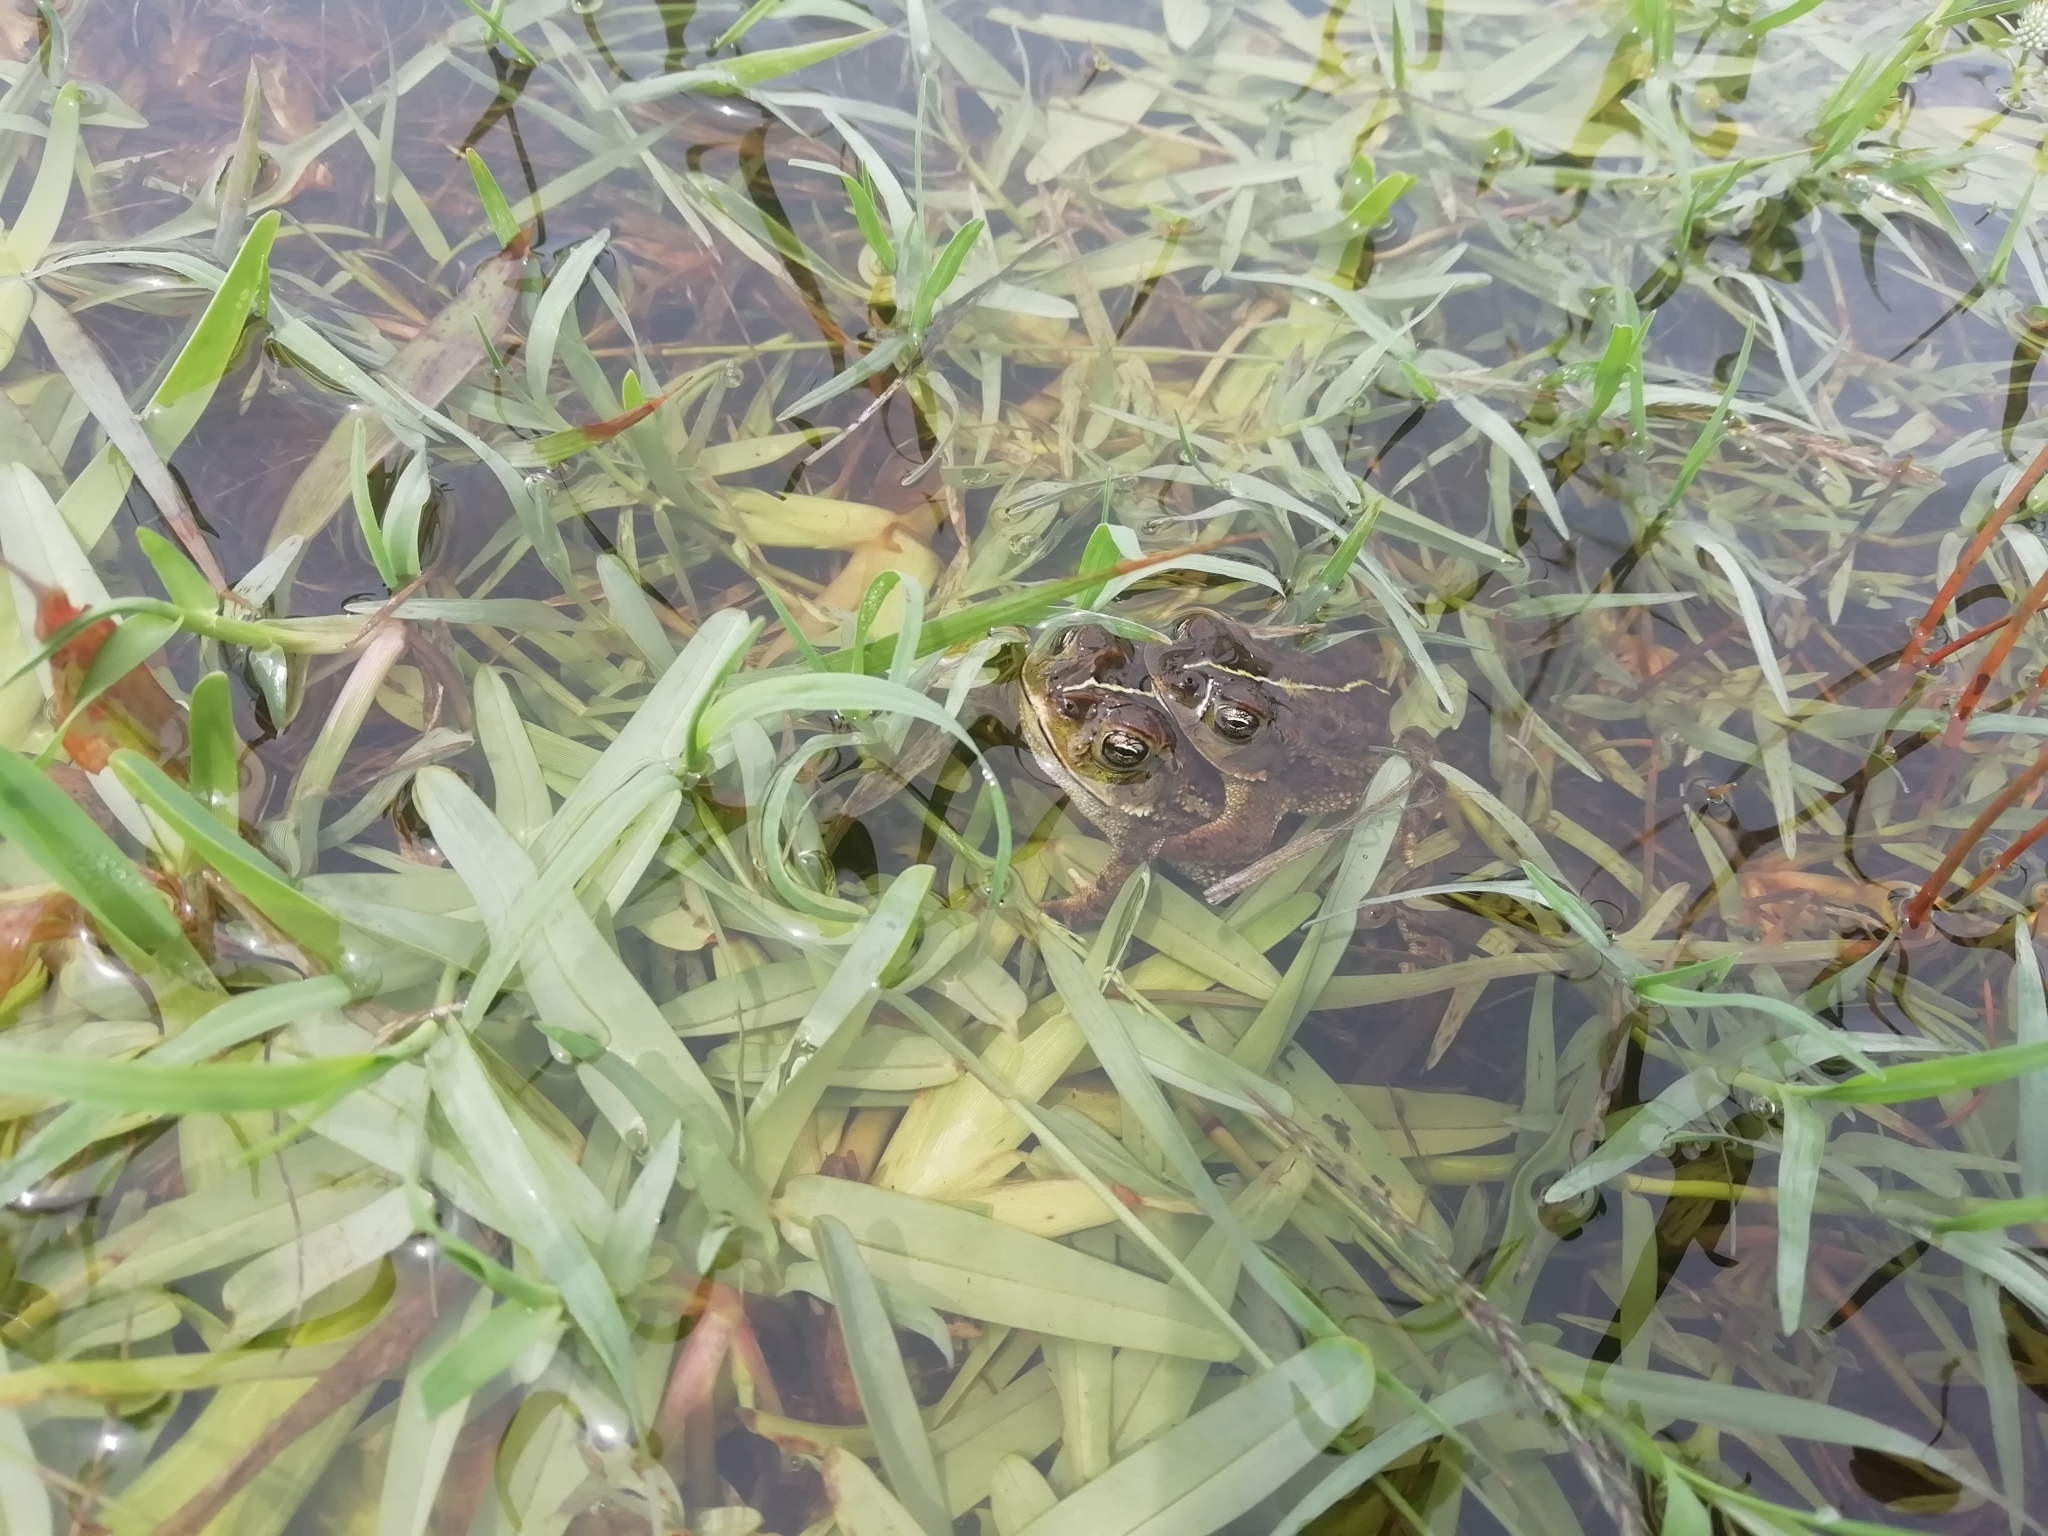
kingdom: Animalia
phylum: Chordata
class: Amphibia
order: Anura
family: Bufonidae
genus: Rhinella
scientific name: Rhinella dorbignyi
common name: D´orbigny’s toad
